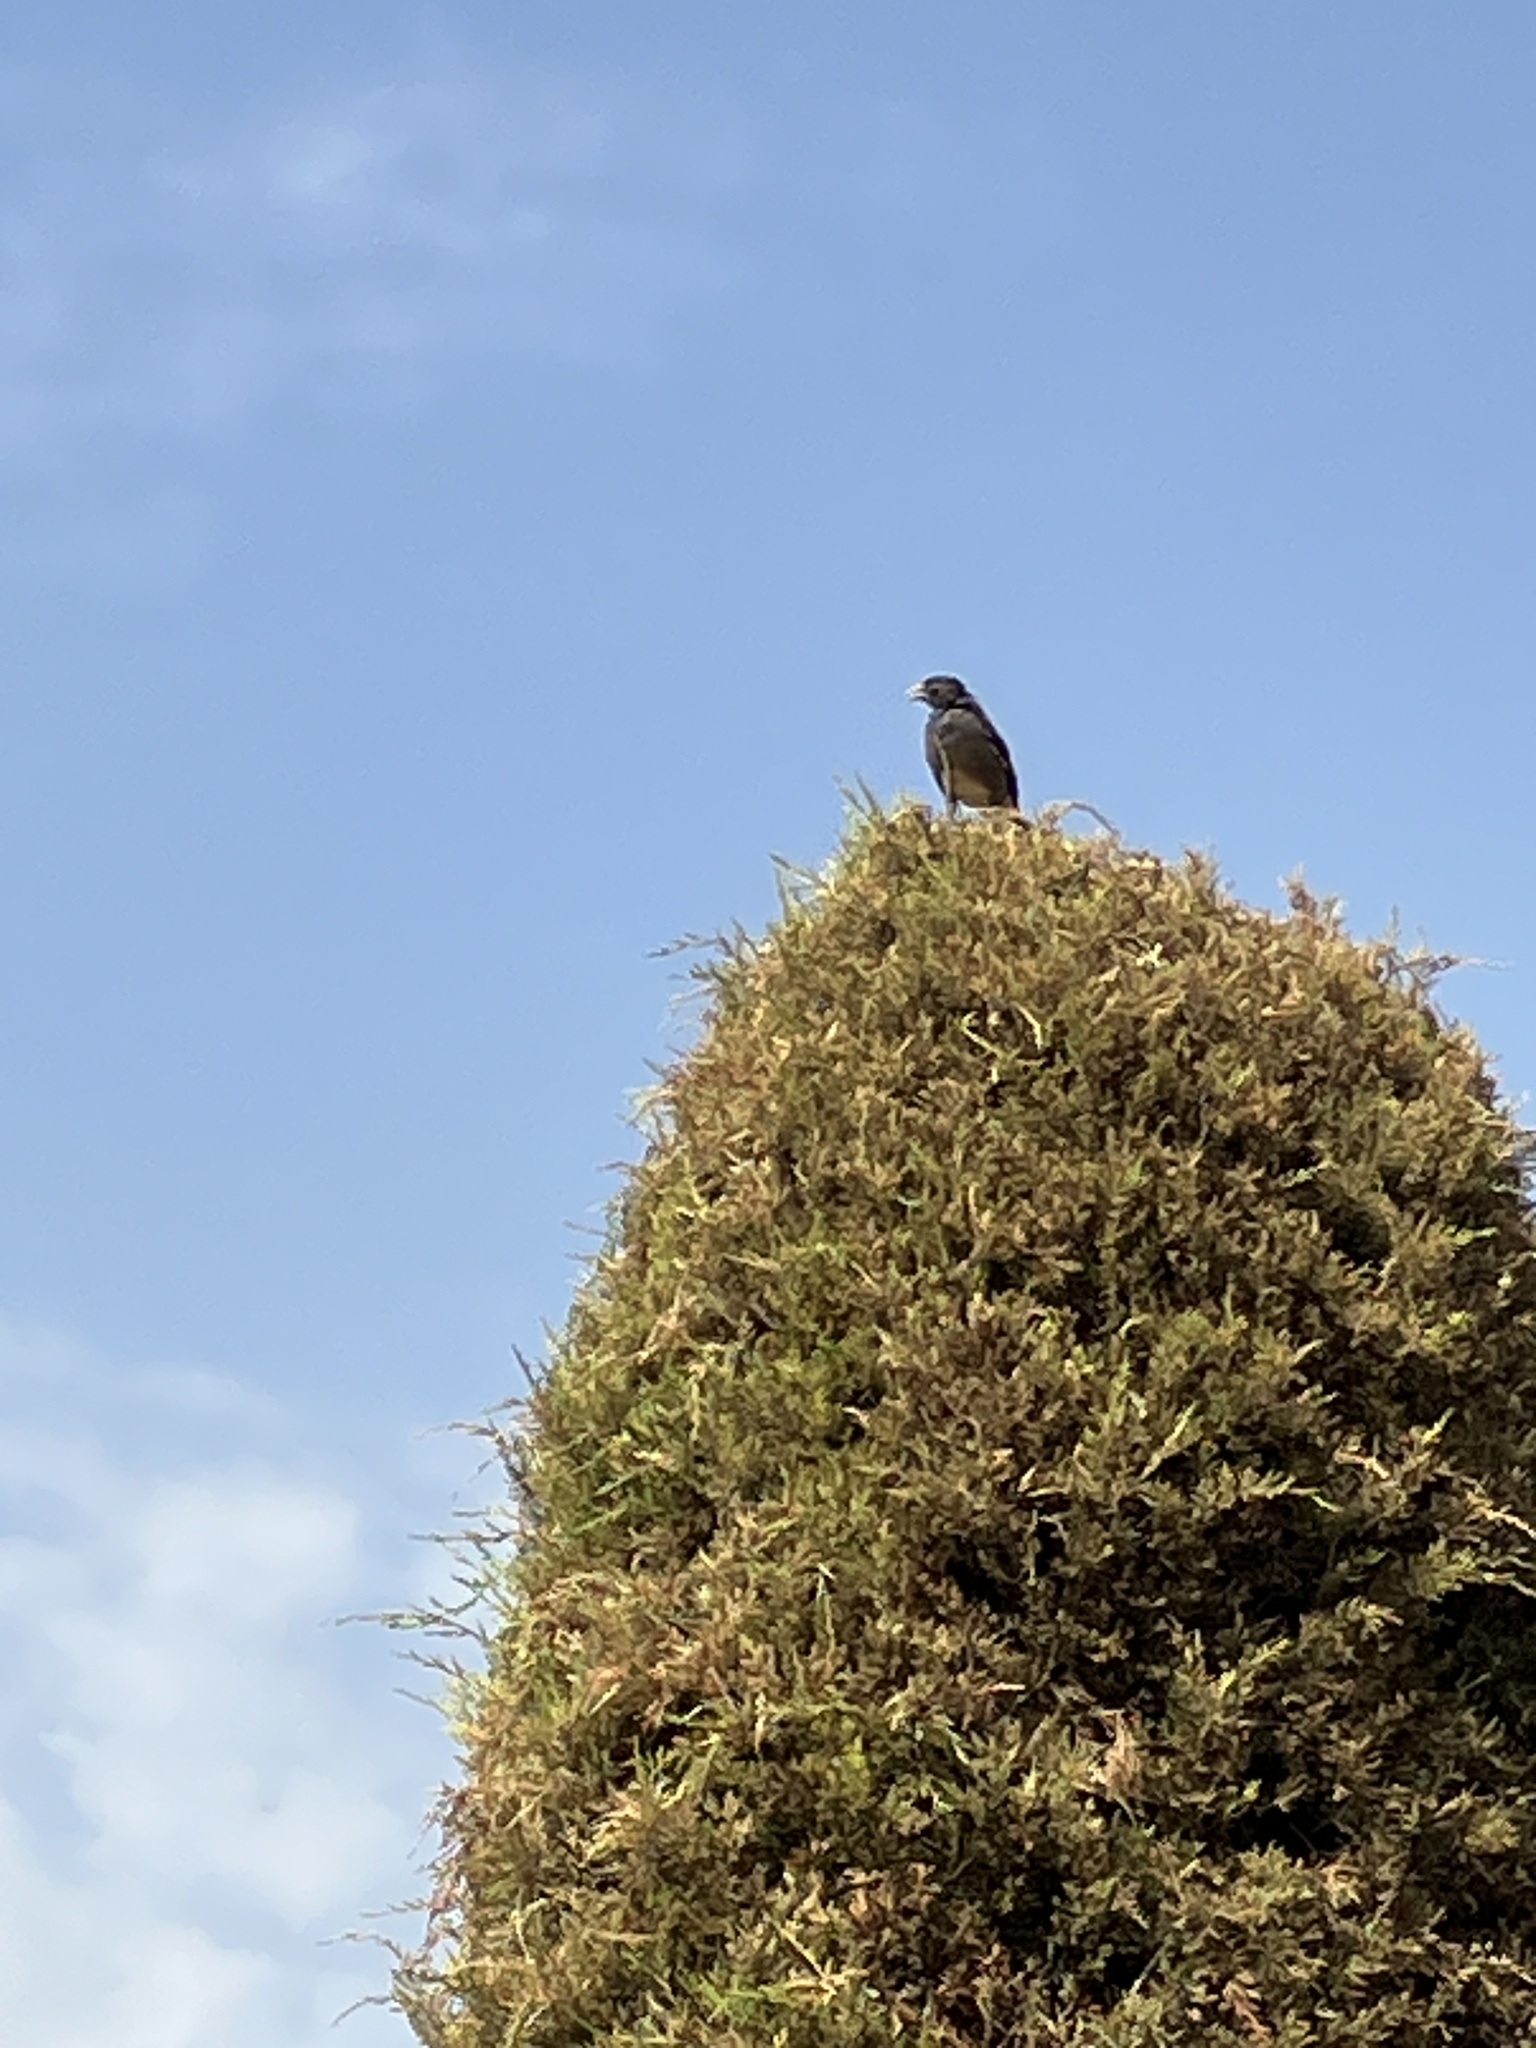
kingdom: Animalia
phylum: Chordata
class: Aves
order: Passeriformes
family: Sturnidae
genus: Acridotheres
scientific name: Acridotheres tristis
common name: Common myna
